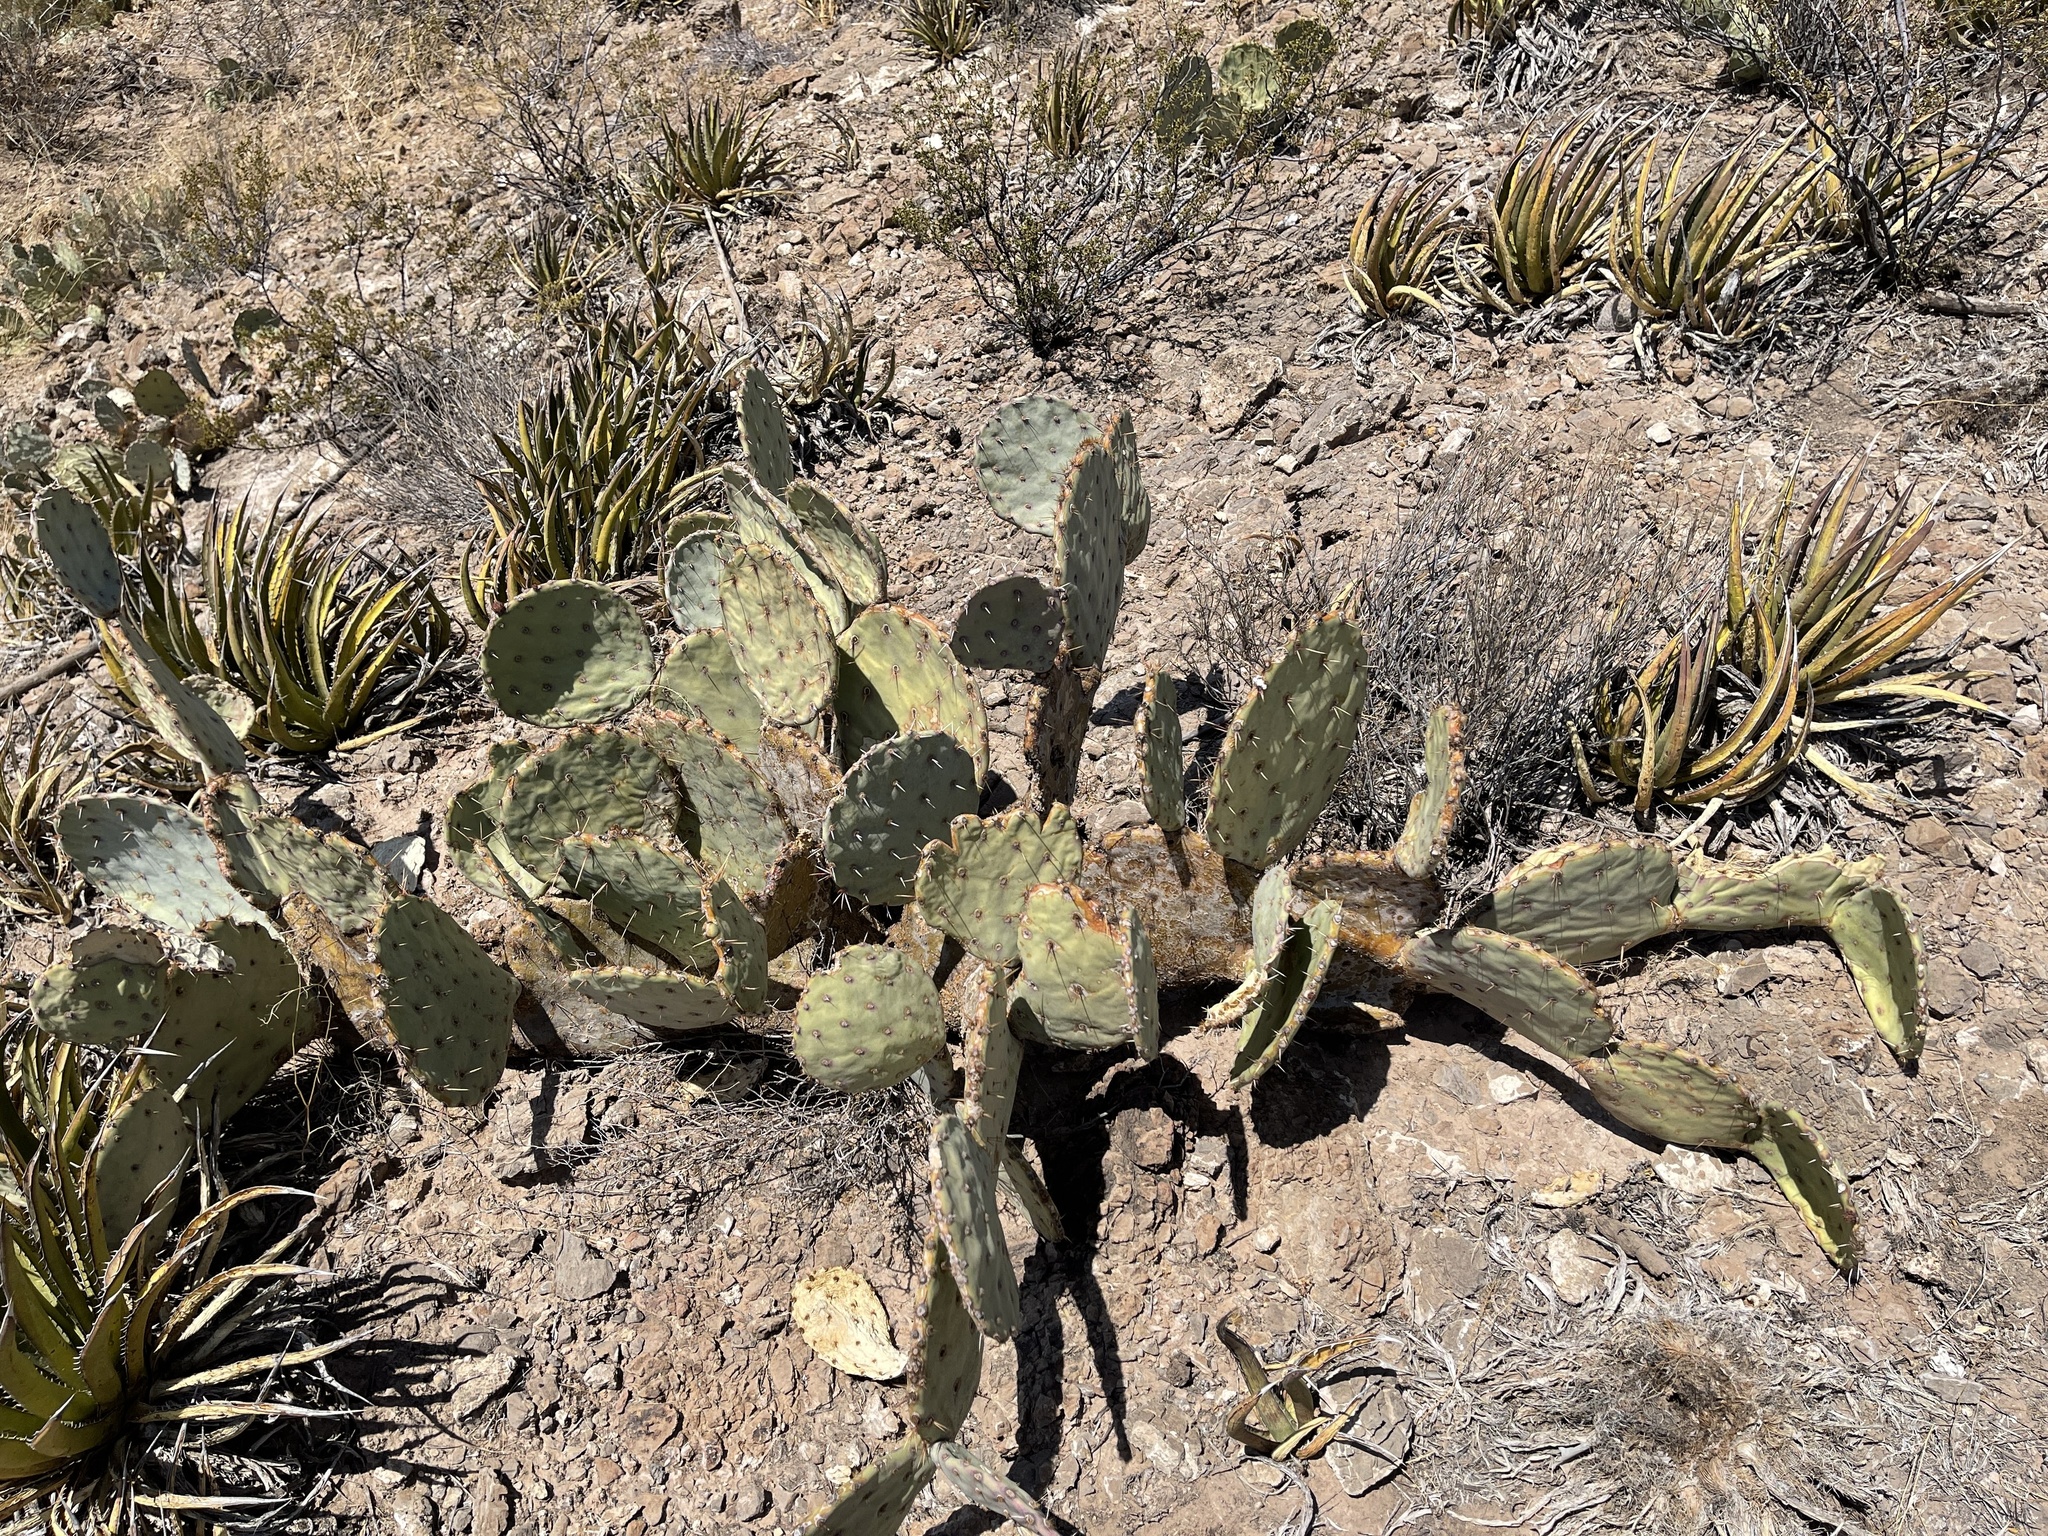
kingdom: Plantae
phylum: Tracheophyta
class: Magnoliopsida
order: Caryophyllales
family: Cactaceae
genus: Opuntia
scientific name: Opuntia engelmannii
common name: Cactus-apple
